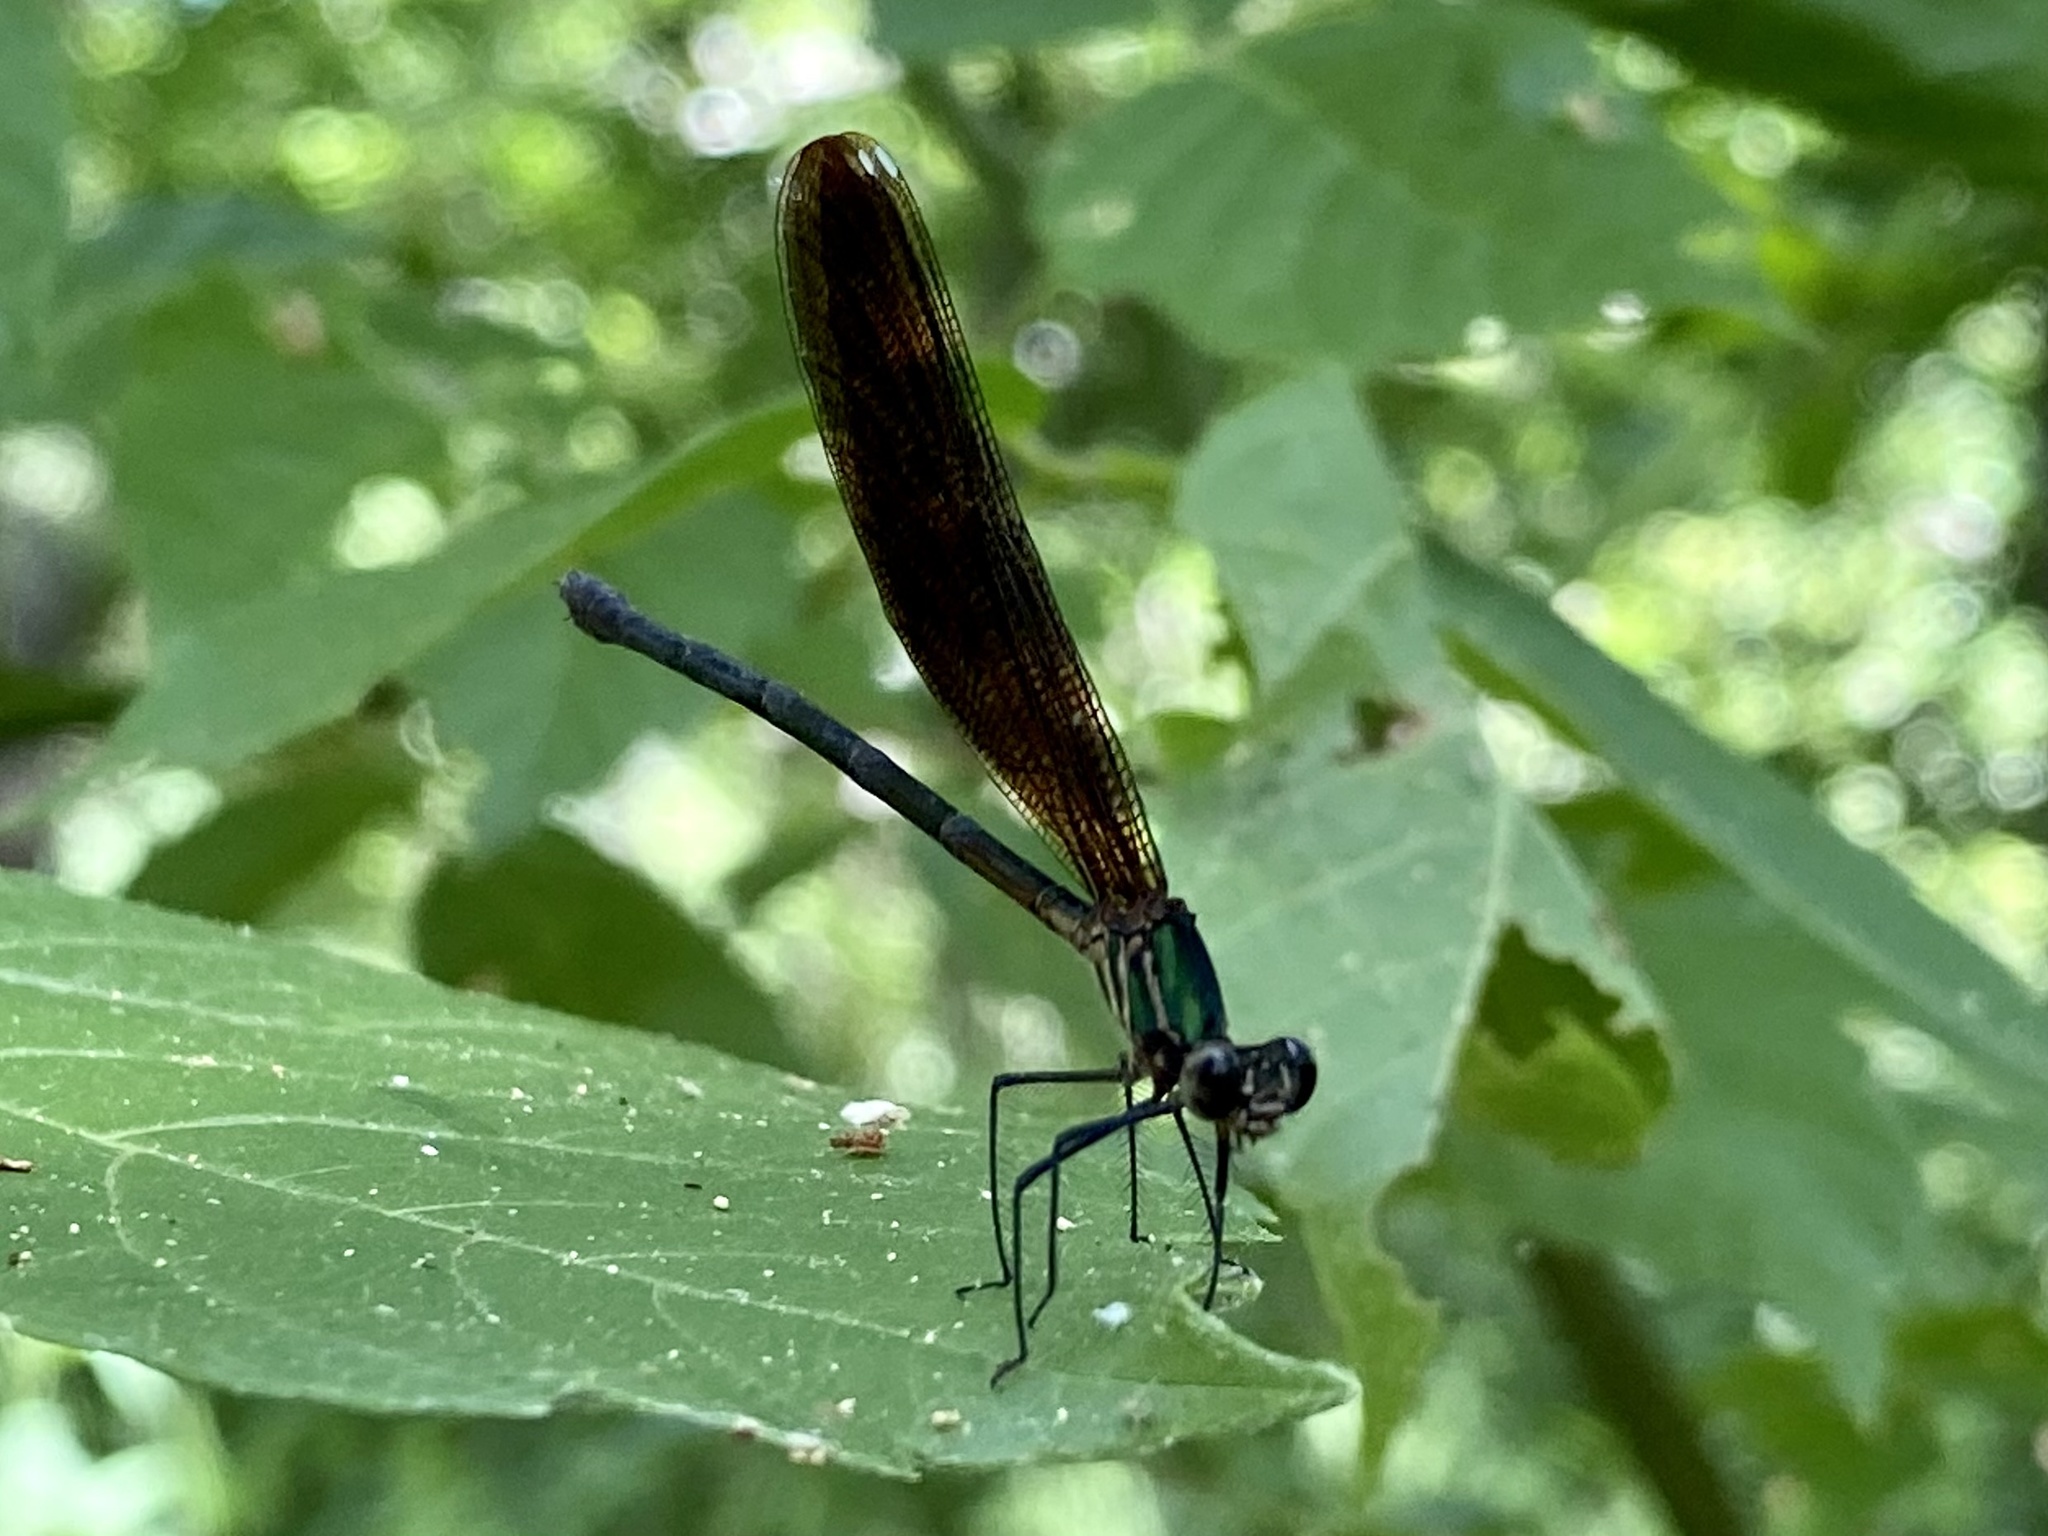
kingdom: Animalia
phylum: Arthropoda
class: Insecta
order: Odonata
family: Calopterygidae
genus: Hetaerina
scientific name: Hetaerina titia
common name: Smoky rubyspot
